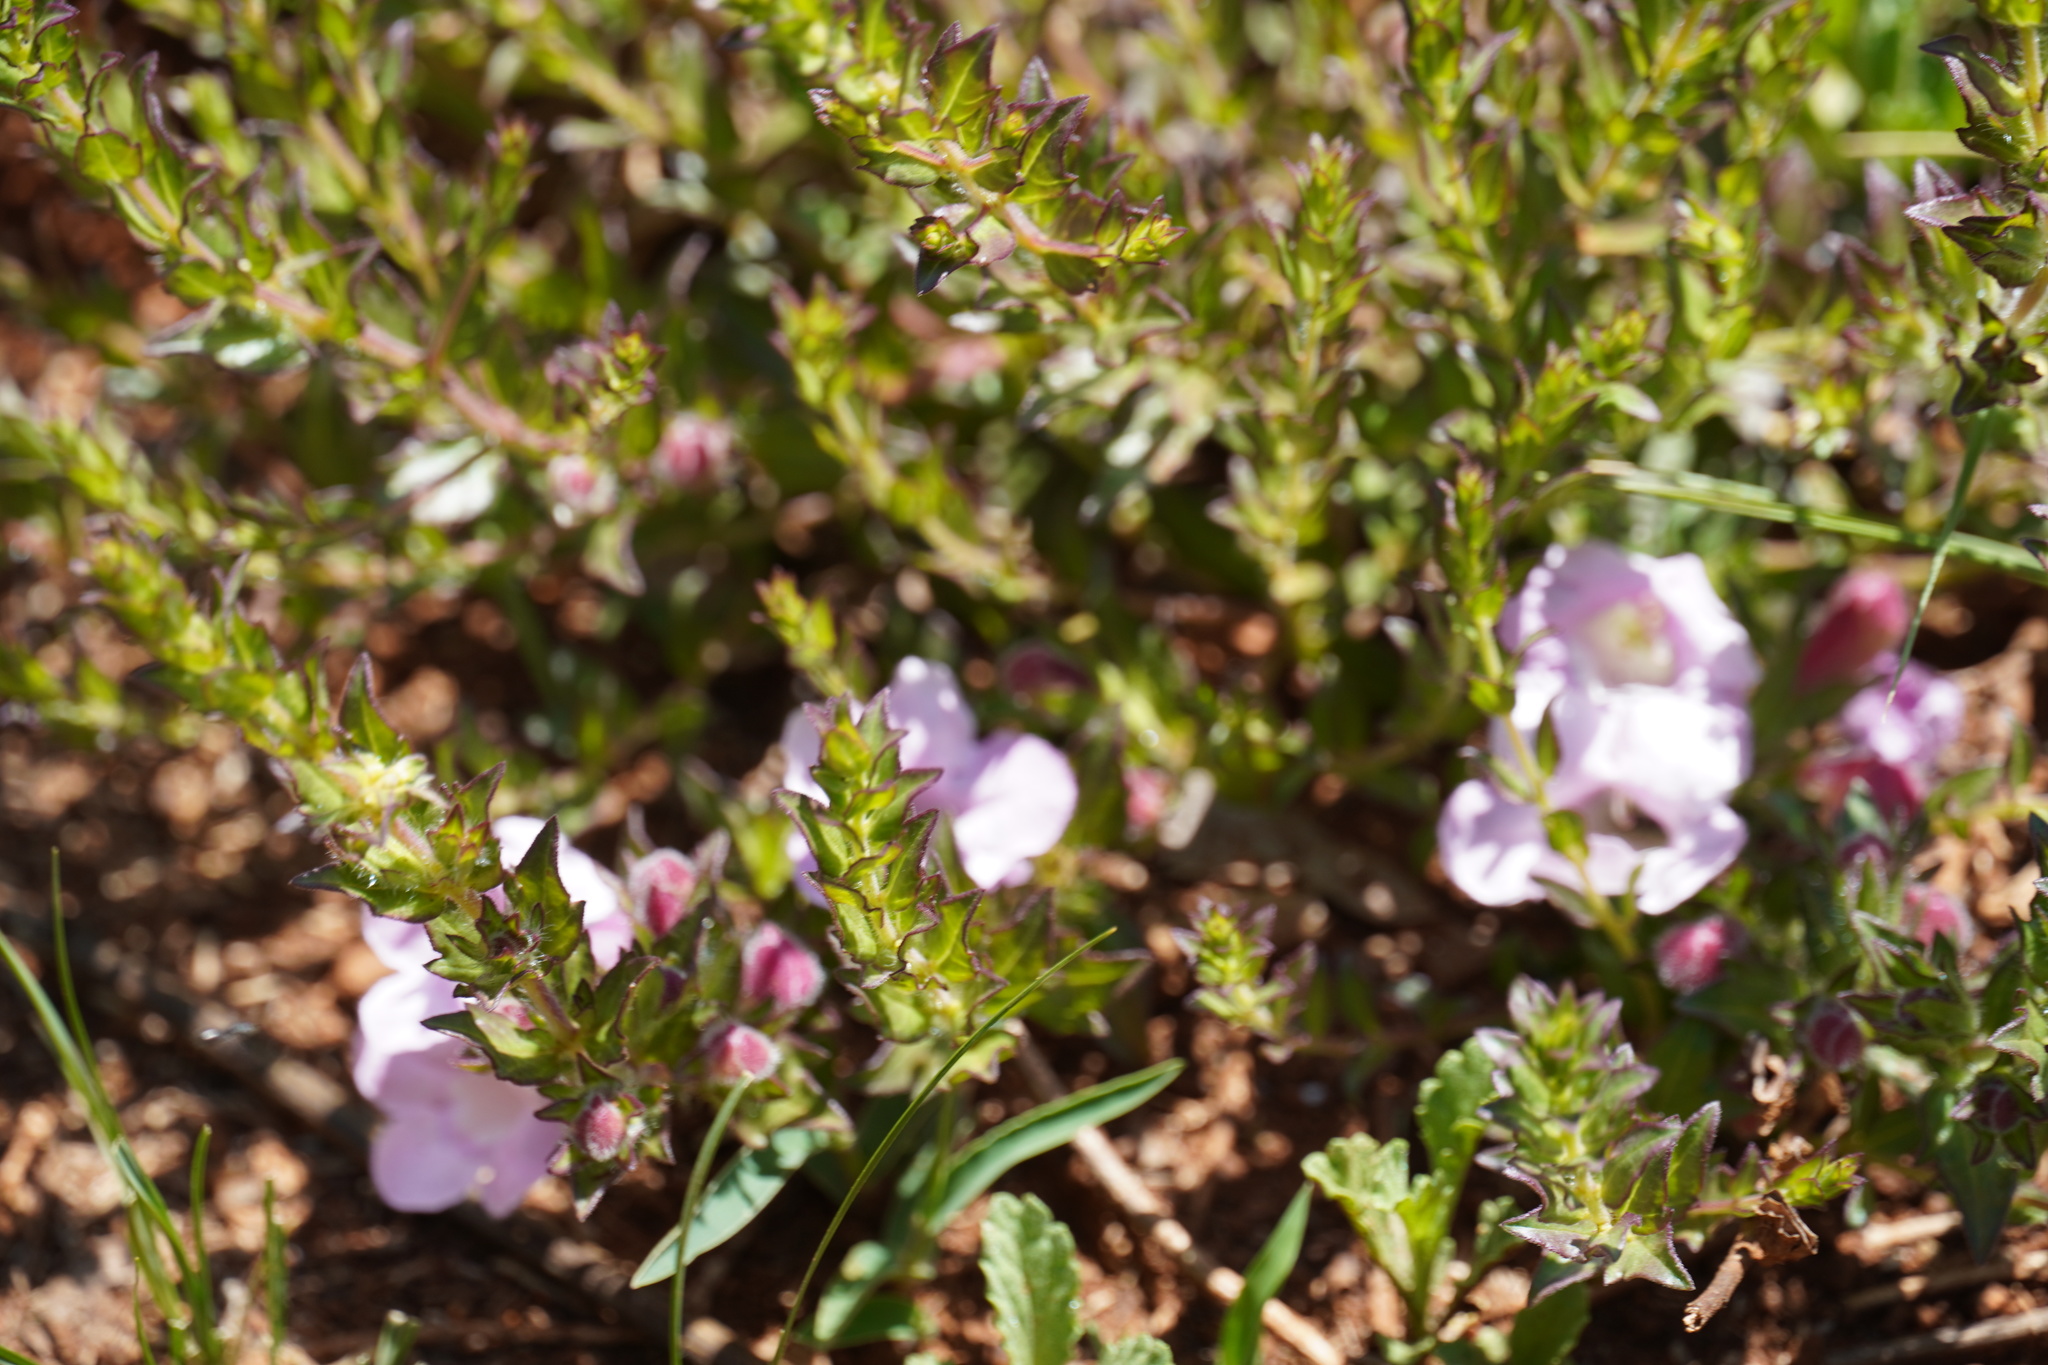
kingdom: Plantae
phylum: Tracheophyta
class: Magnoliopsida
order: Lamiales
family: Orobanchaceae
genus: Graderia
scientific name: Graderia subintegra
